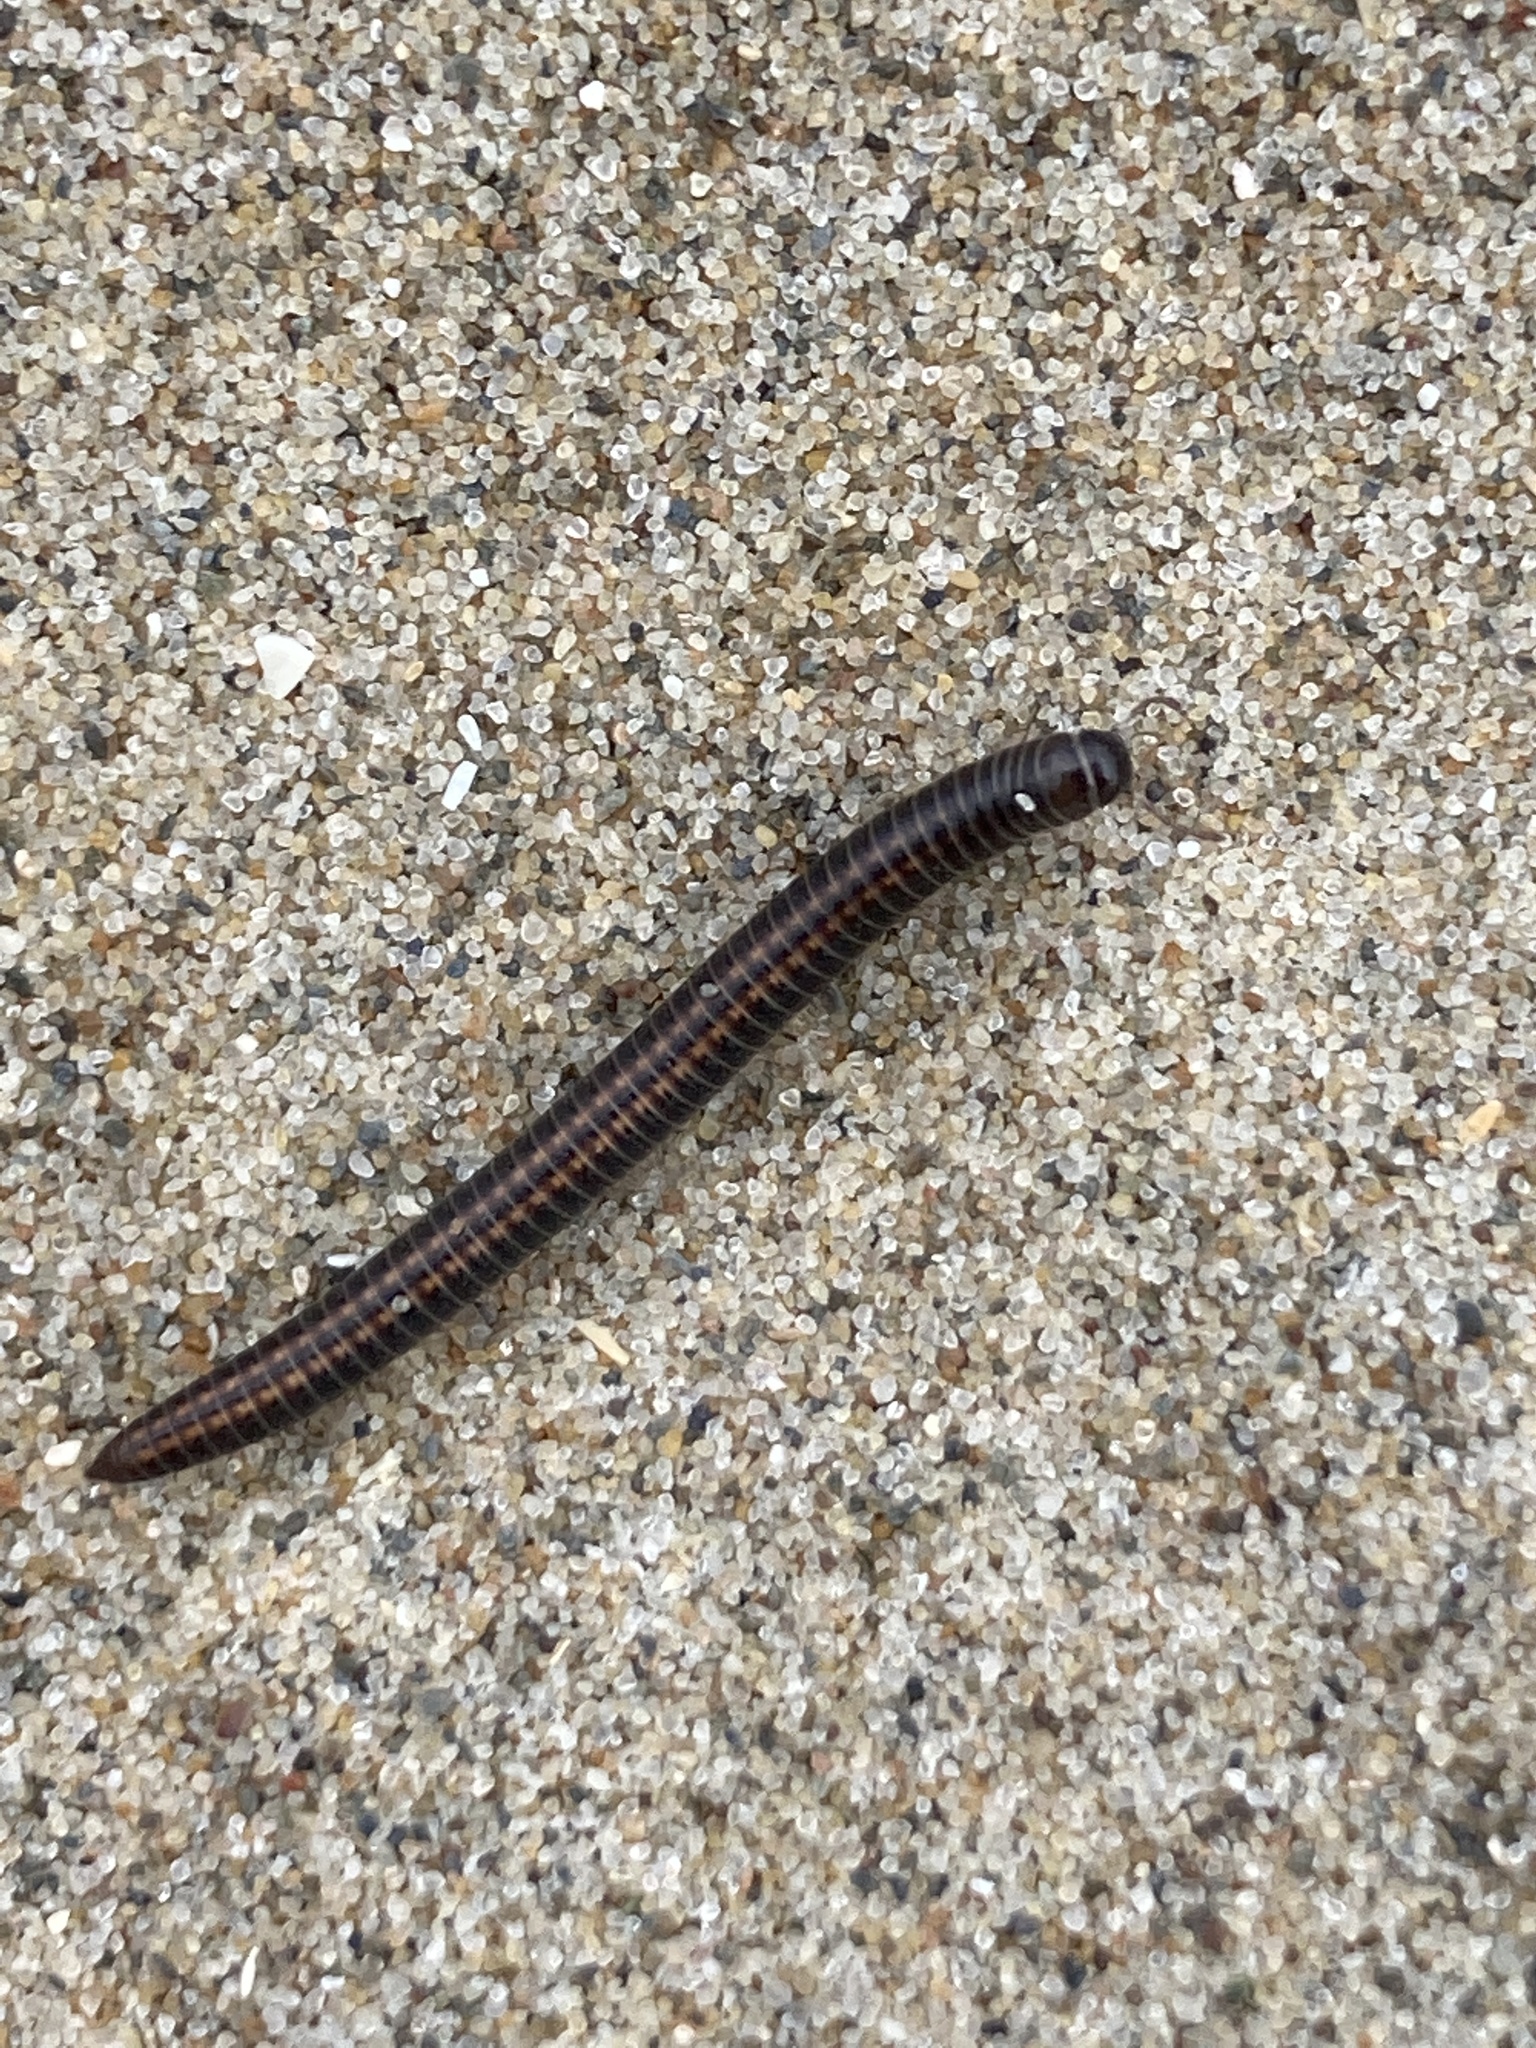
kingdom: Animalia
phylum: Arthropoda
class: Diplopoda
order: Julida
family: Julidae
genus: Ommatoiulus
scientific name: Ommatoiulus sabulosus
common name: Striped millipede
